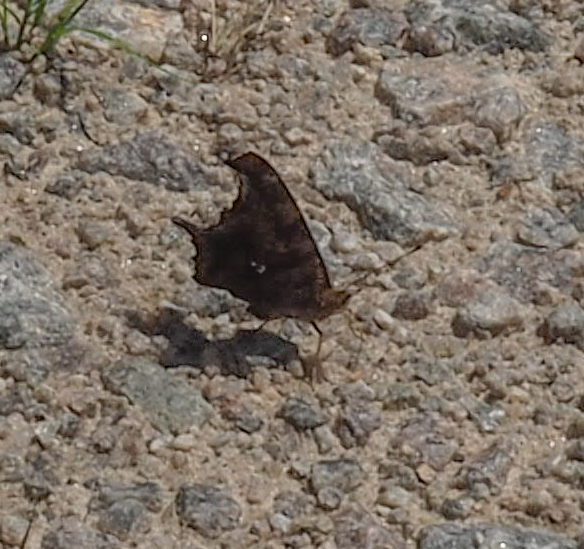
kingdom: Animalia
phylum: Arthropoda
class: Insecta
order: Lepidoptera
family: Nymphalidae
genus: Polygonia
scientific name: Polygonia interrogationis
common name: Question mark
